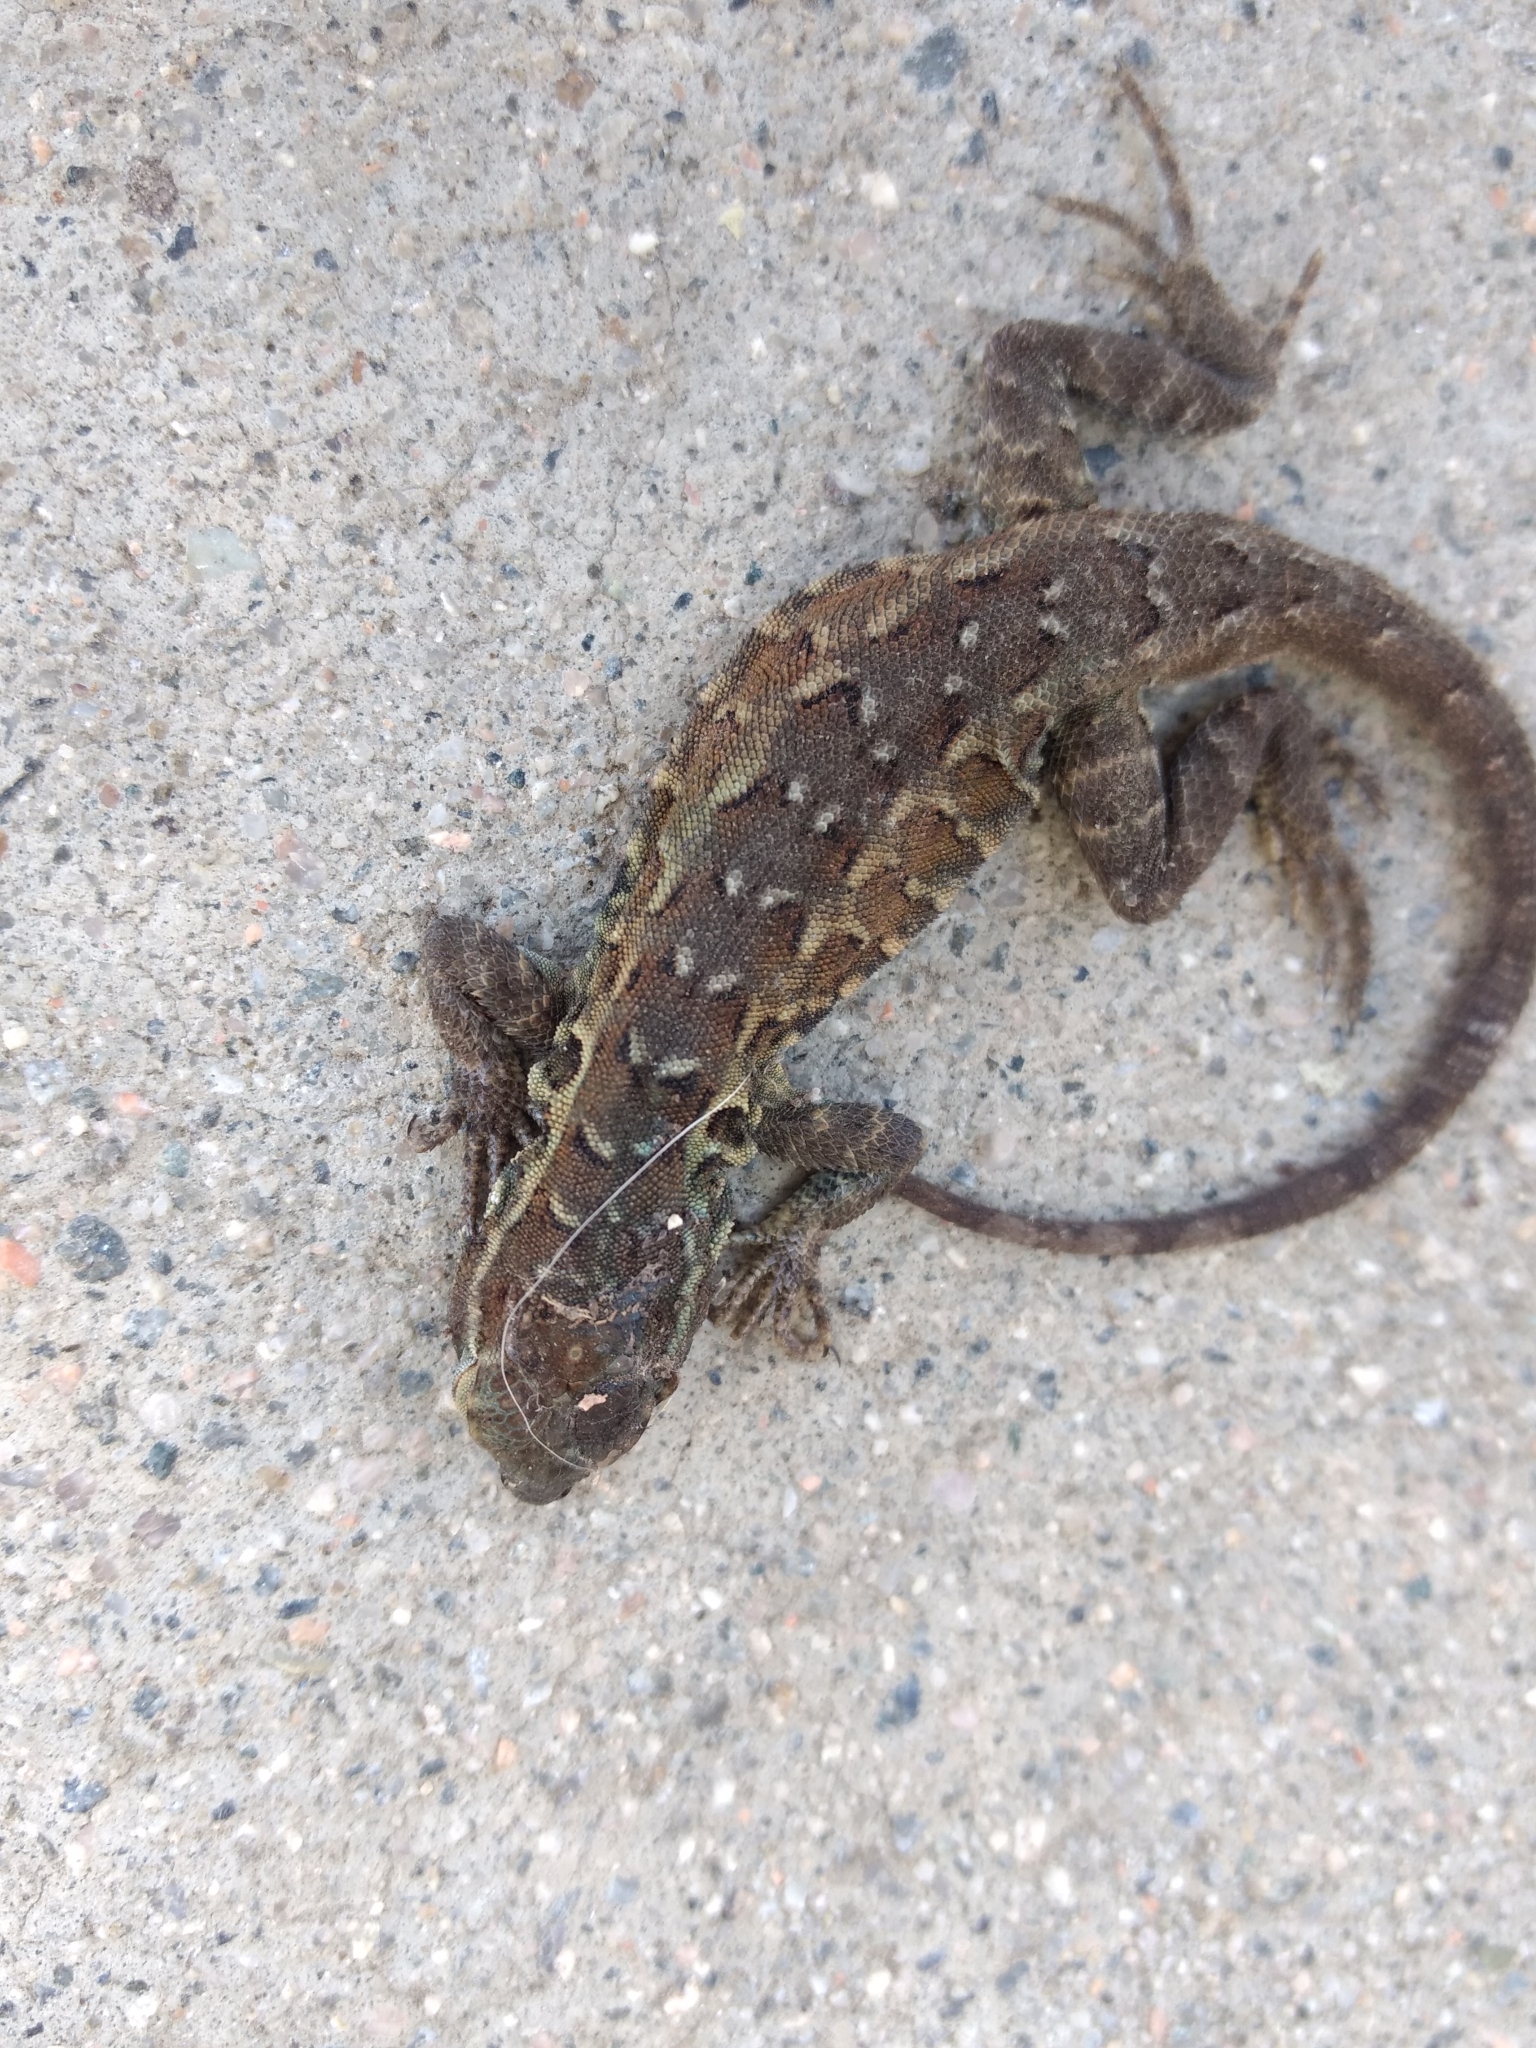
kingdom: Animalia
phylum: Chordata
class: Squamata
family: Phrynosomatidae
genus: Uta
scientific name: Uta stansburiana
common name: Side-blotched lizard
